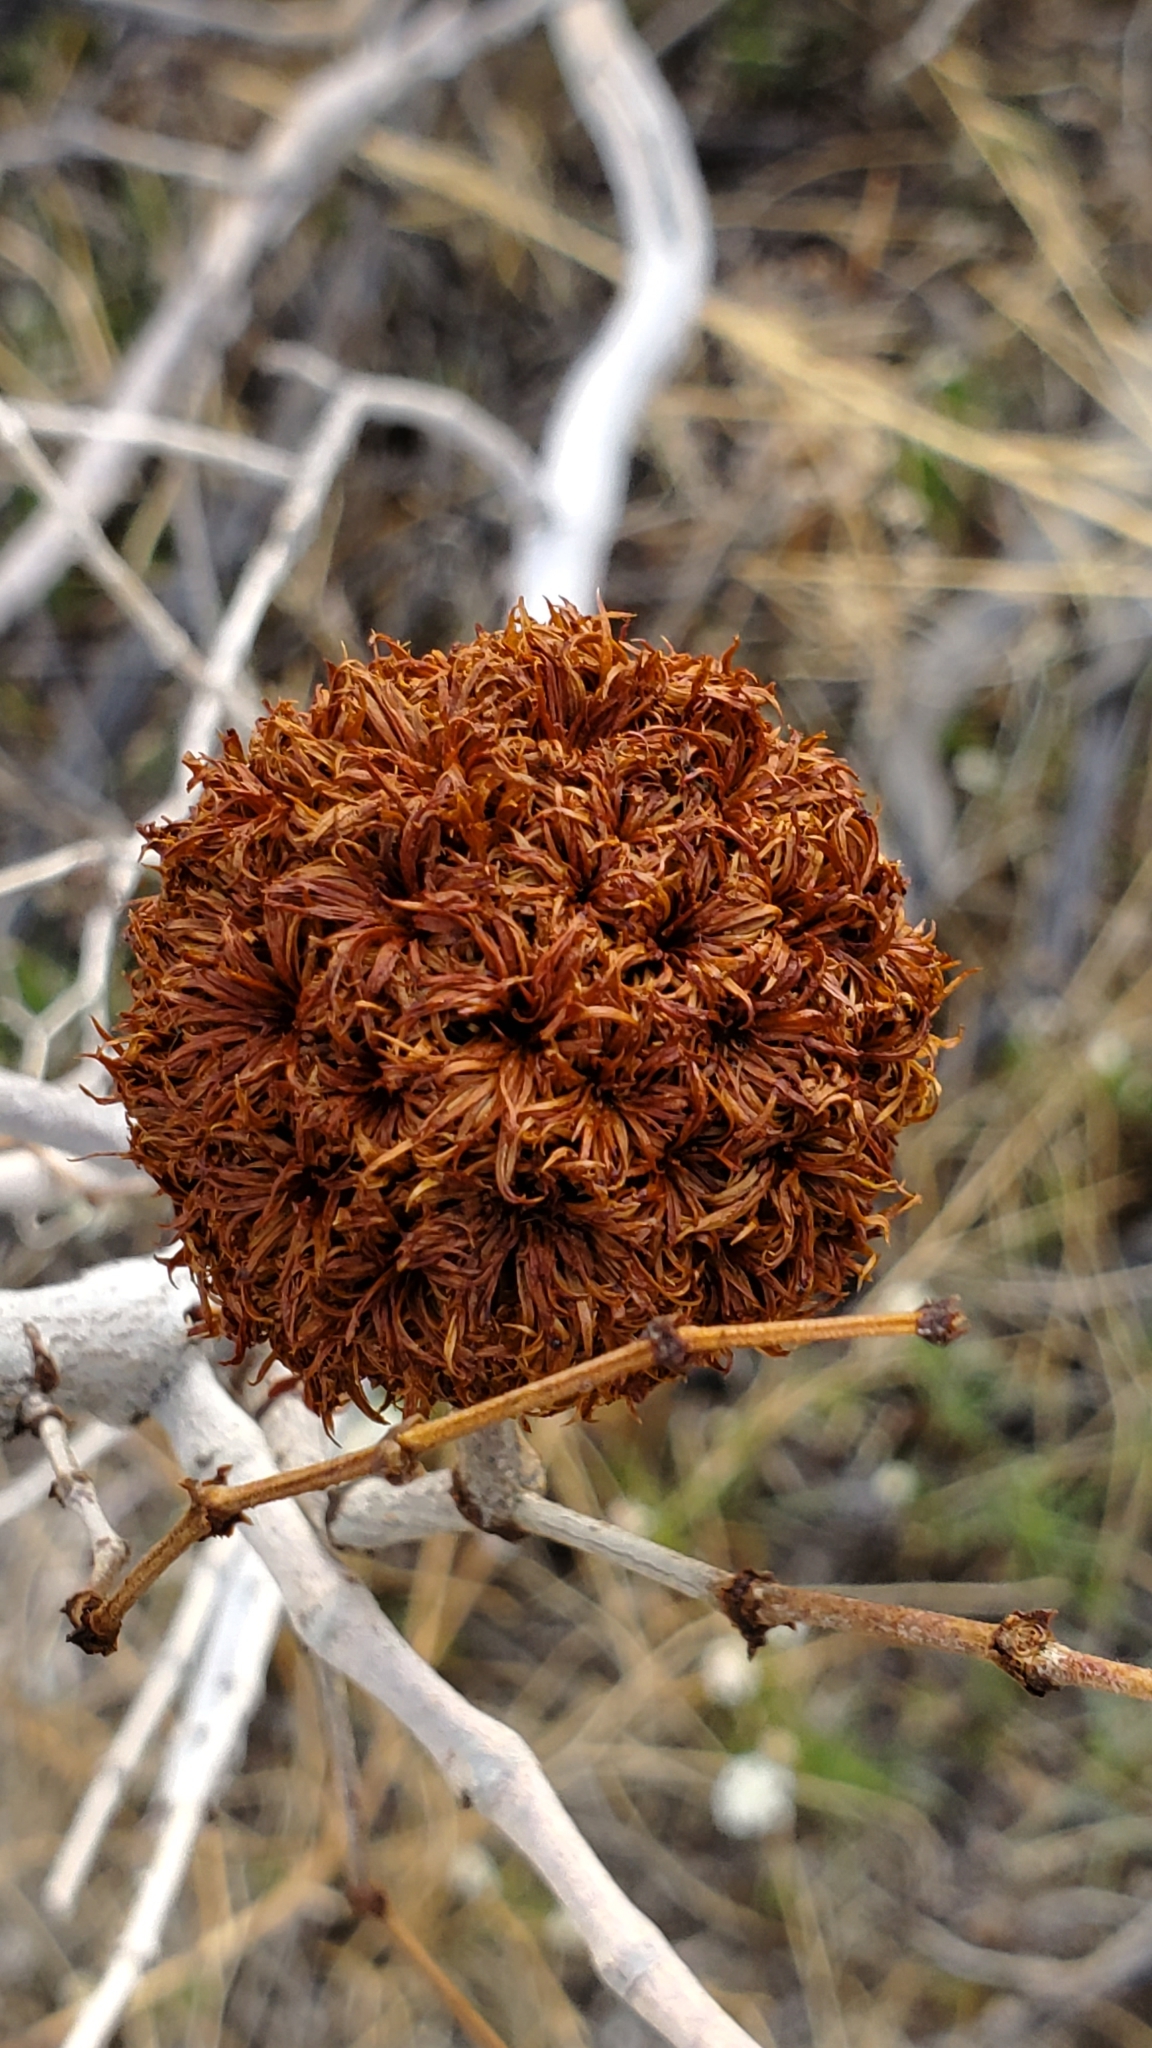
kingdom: Animalia
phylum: Arthropoda
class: Insecta
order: Diptera
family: Cecidomyiidae
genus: Asphondylia
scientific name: Asphondylia auripila
